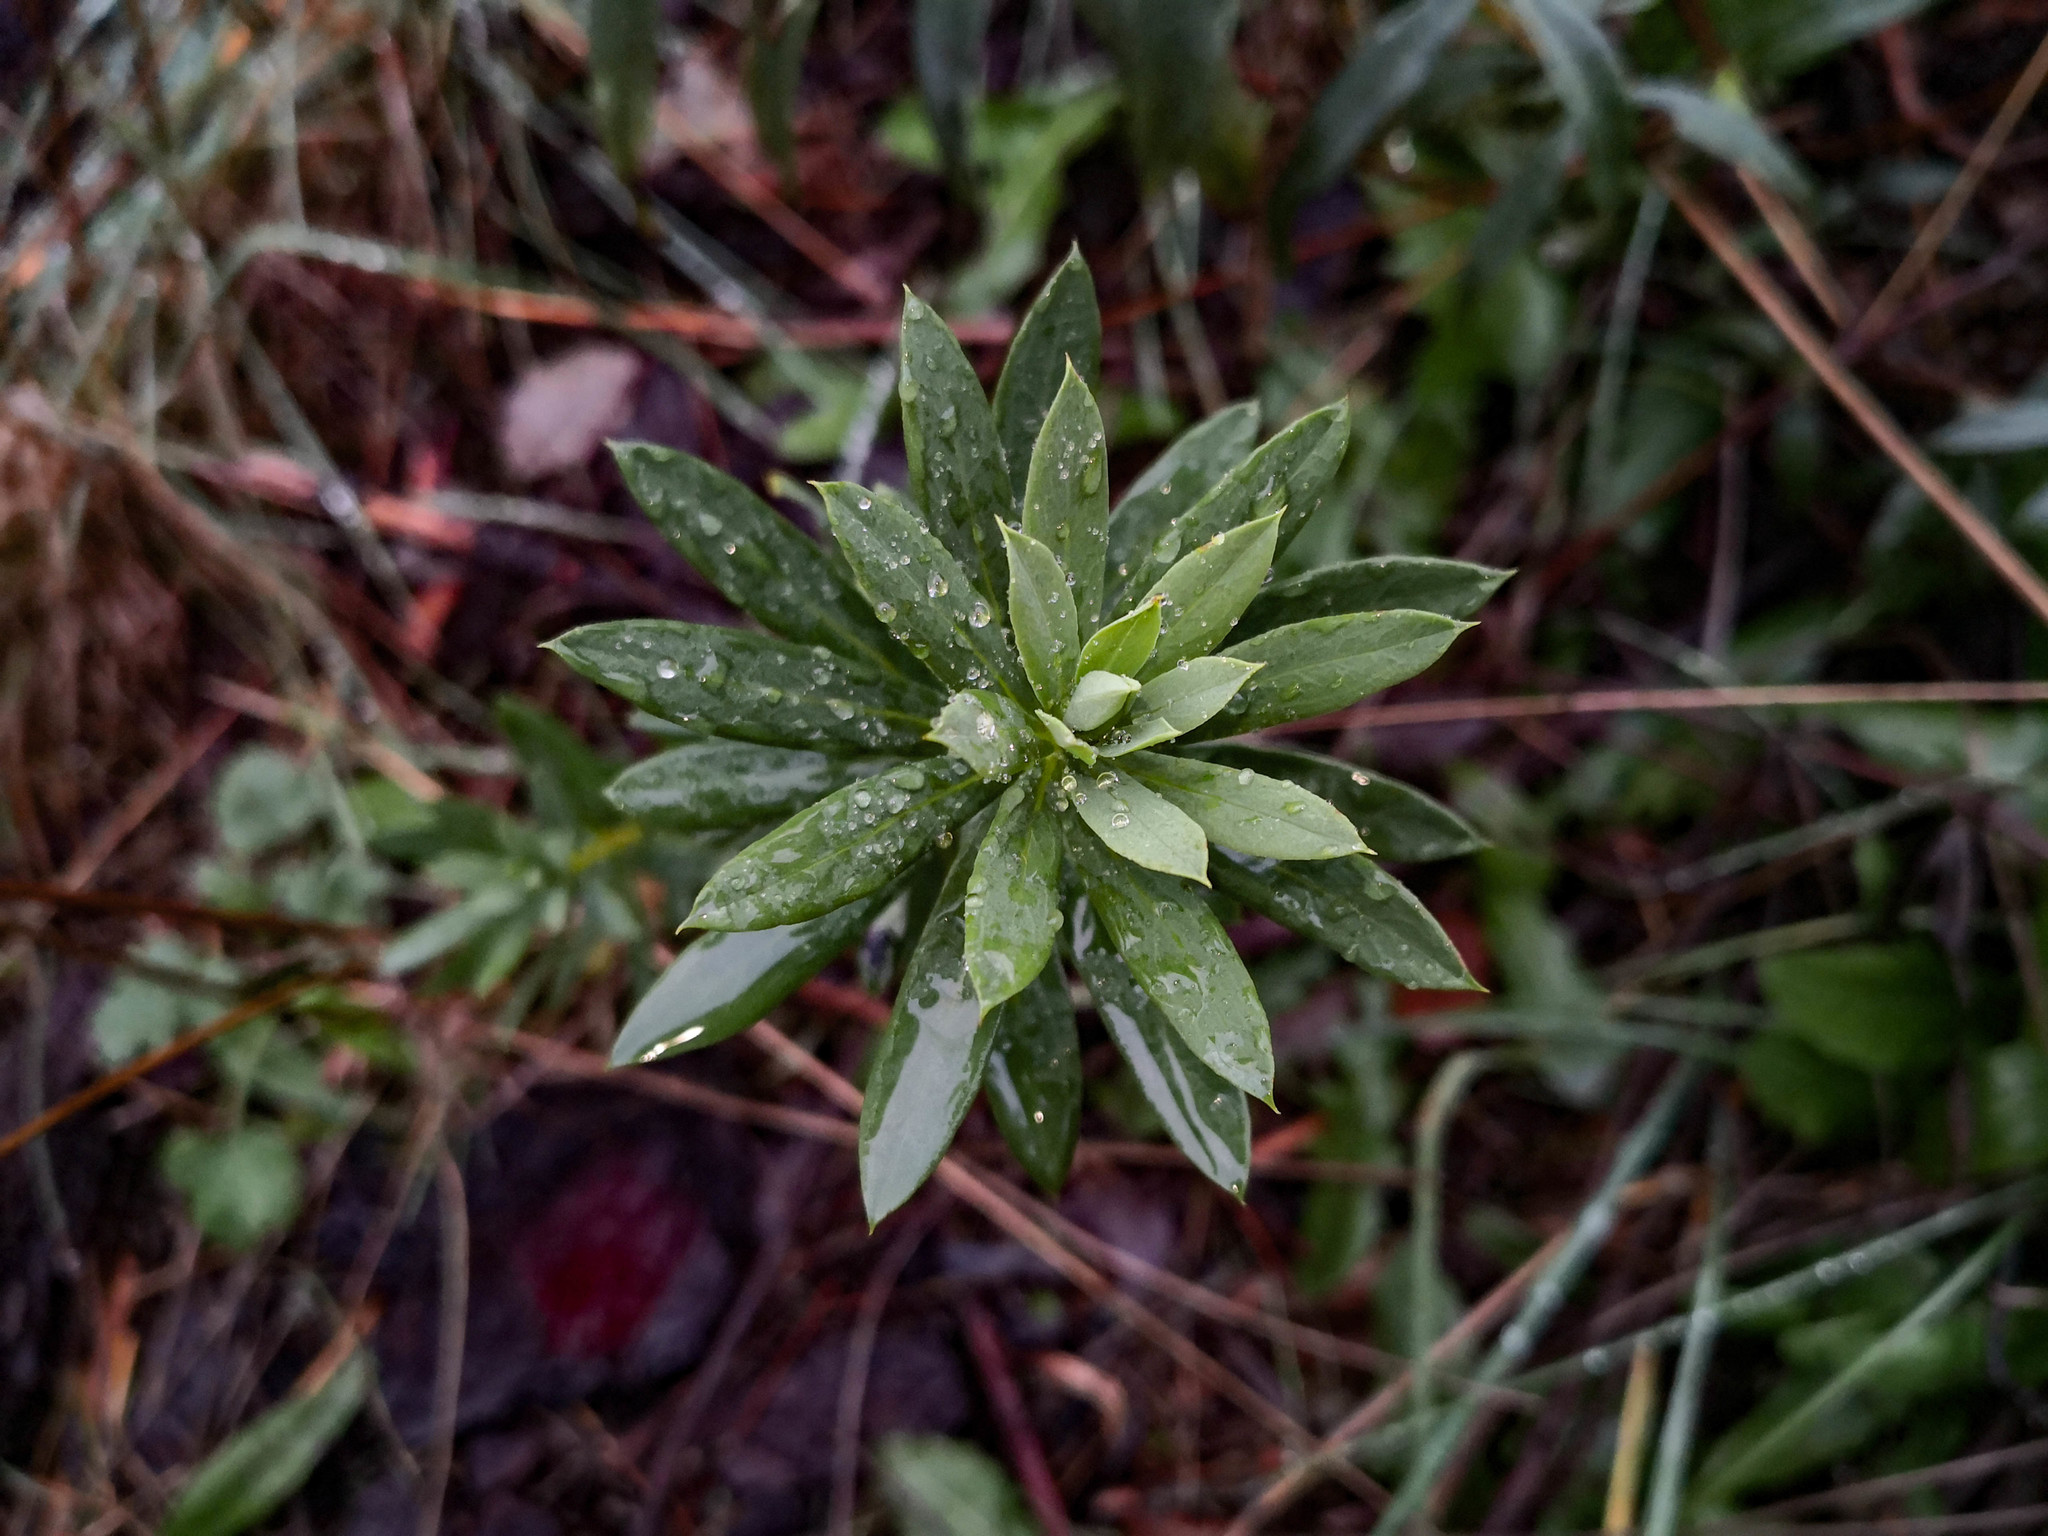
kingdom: Plantae
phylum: Tracheophyta
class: Magnoliopsida
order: Malvales
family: Thymelaeaceae
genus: Daphne
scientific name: Daphne gnidium
